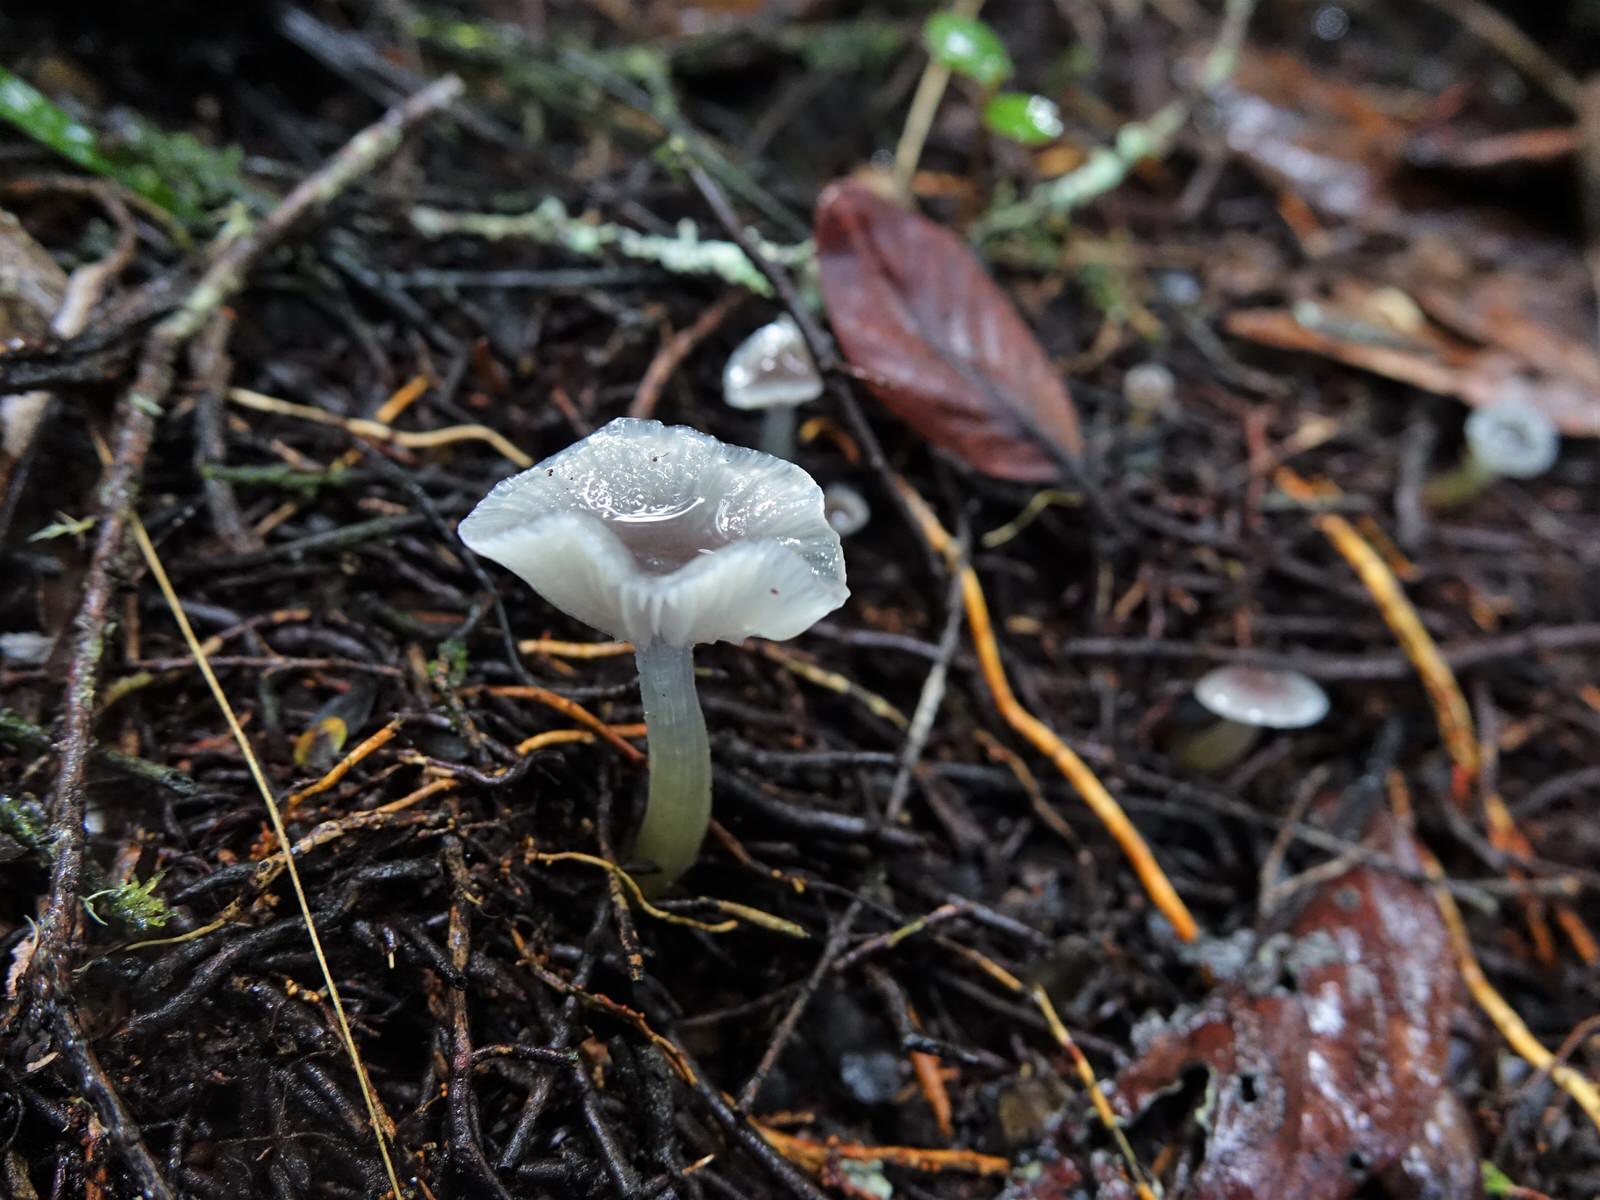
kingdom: Fungi
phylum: Basidiomycota
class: Agaricomycetes
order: Agaricales
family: Hygrophoraceae
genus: Gliophorus
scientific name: Gliophorus lilacipes
